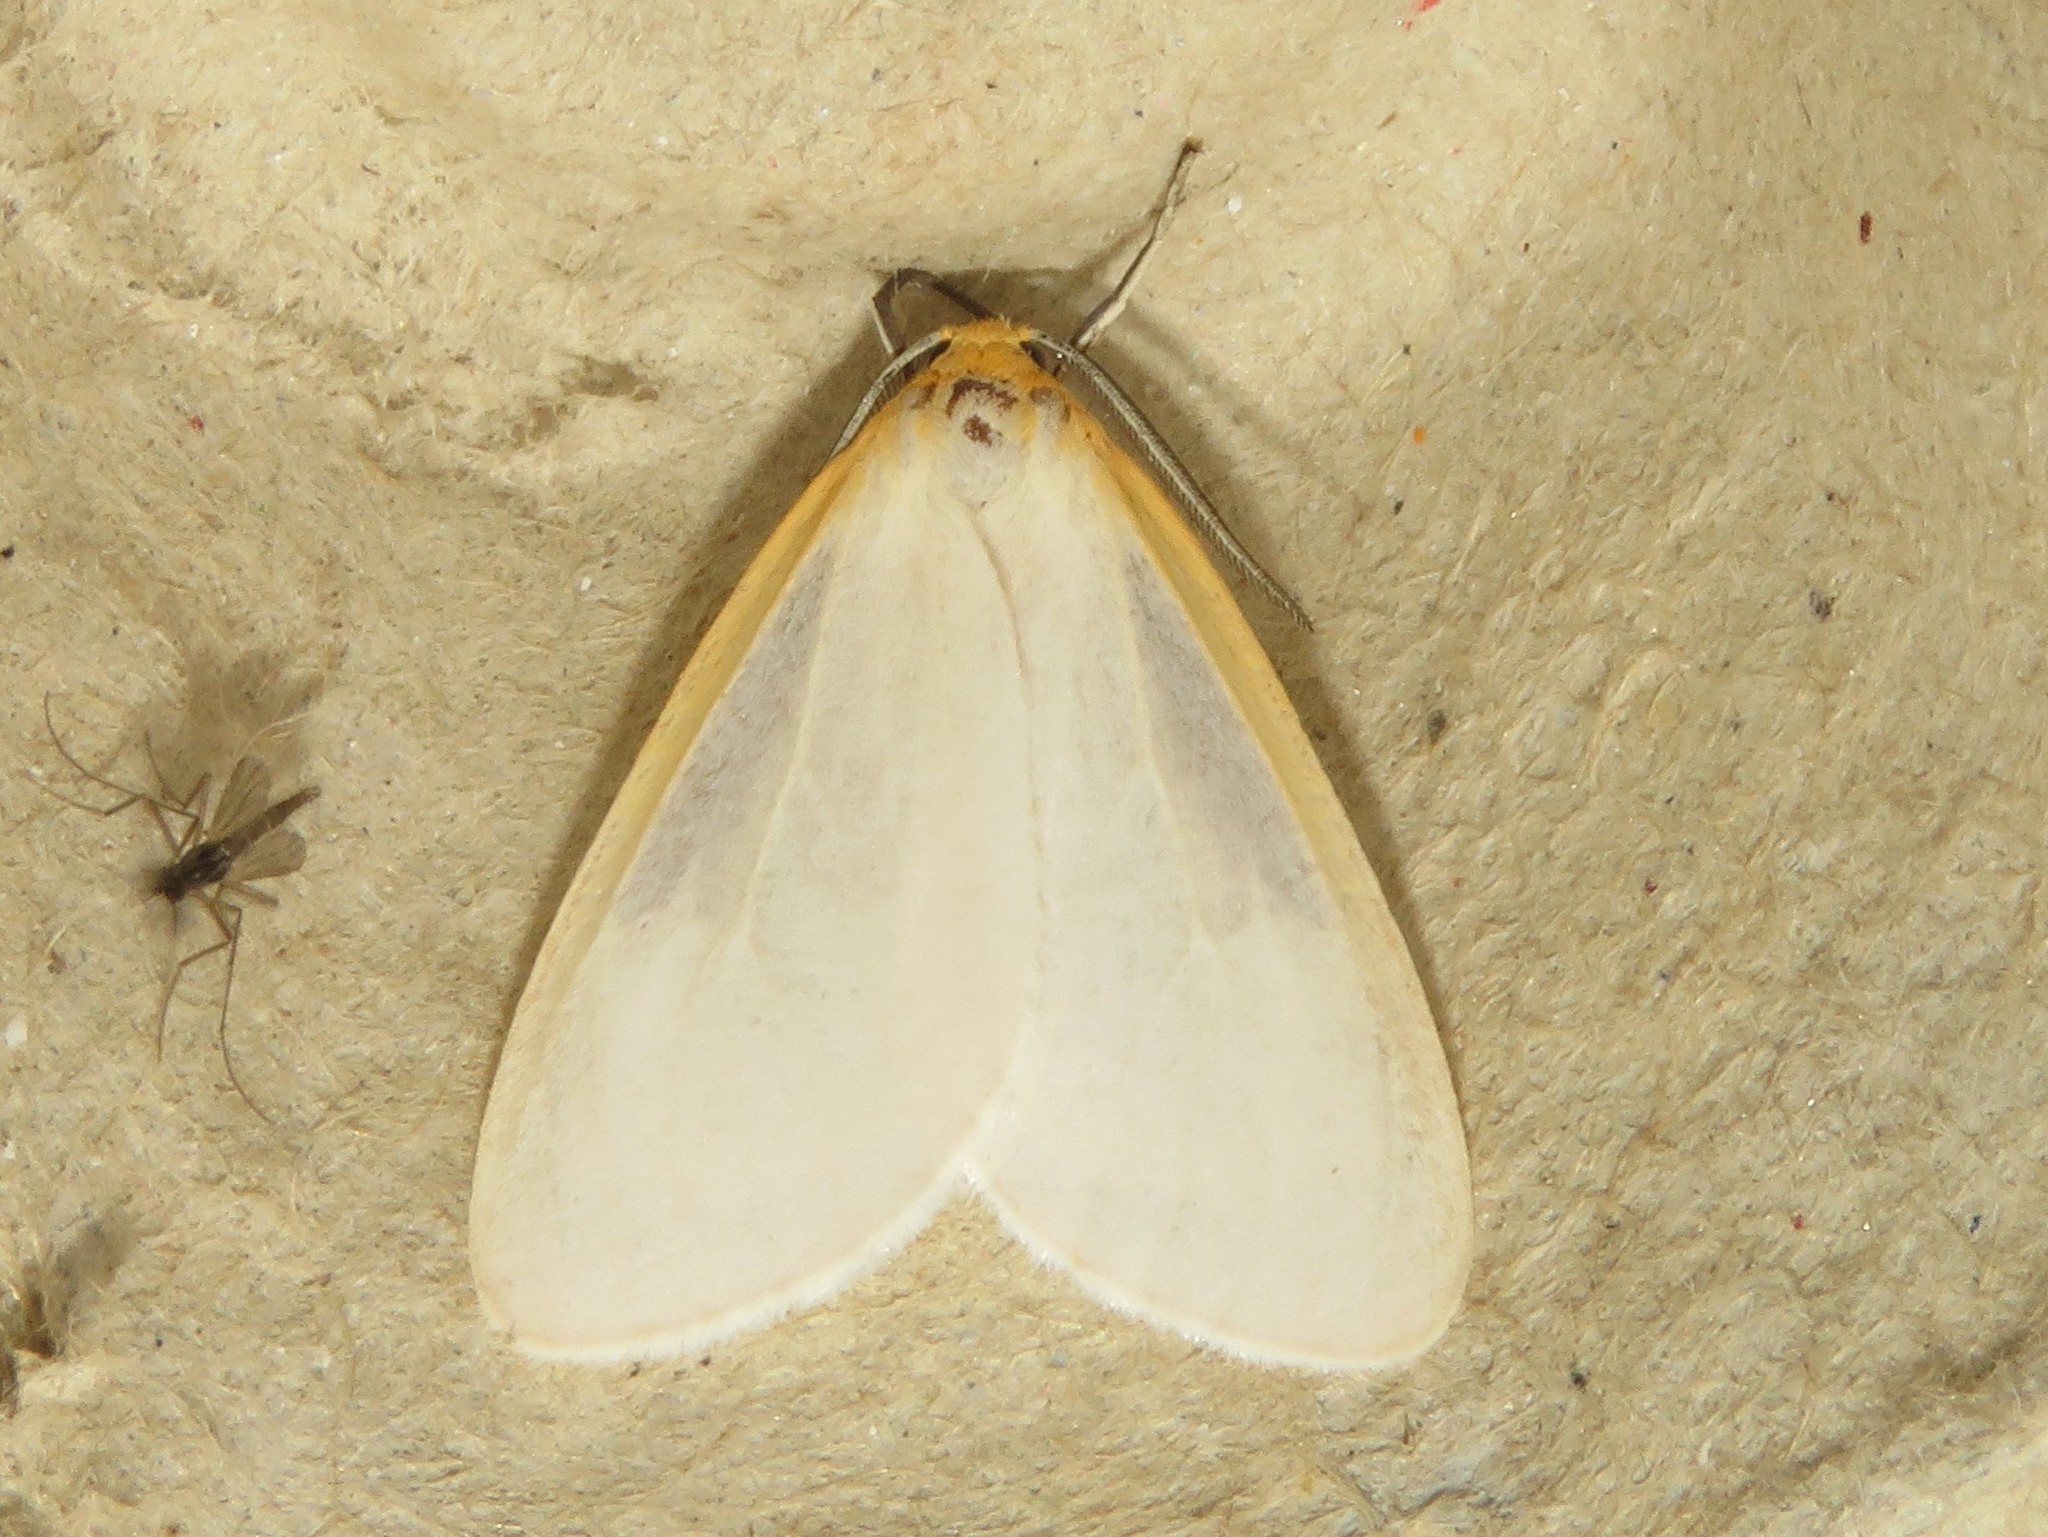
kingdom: Animalia
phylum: Arthropoda
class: Insecta
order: Lepidoptera
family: Erebidae
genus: Cycnia
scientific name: Cycnia tenera
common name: Delicate cycnia moth
